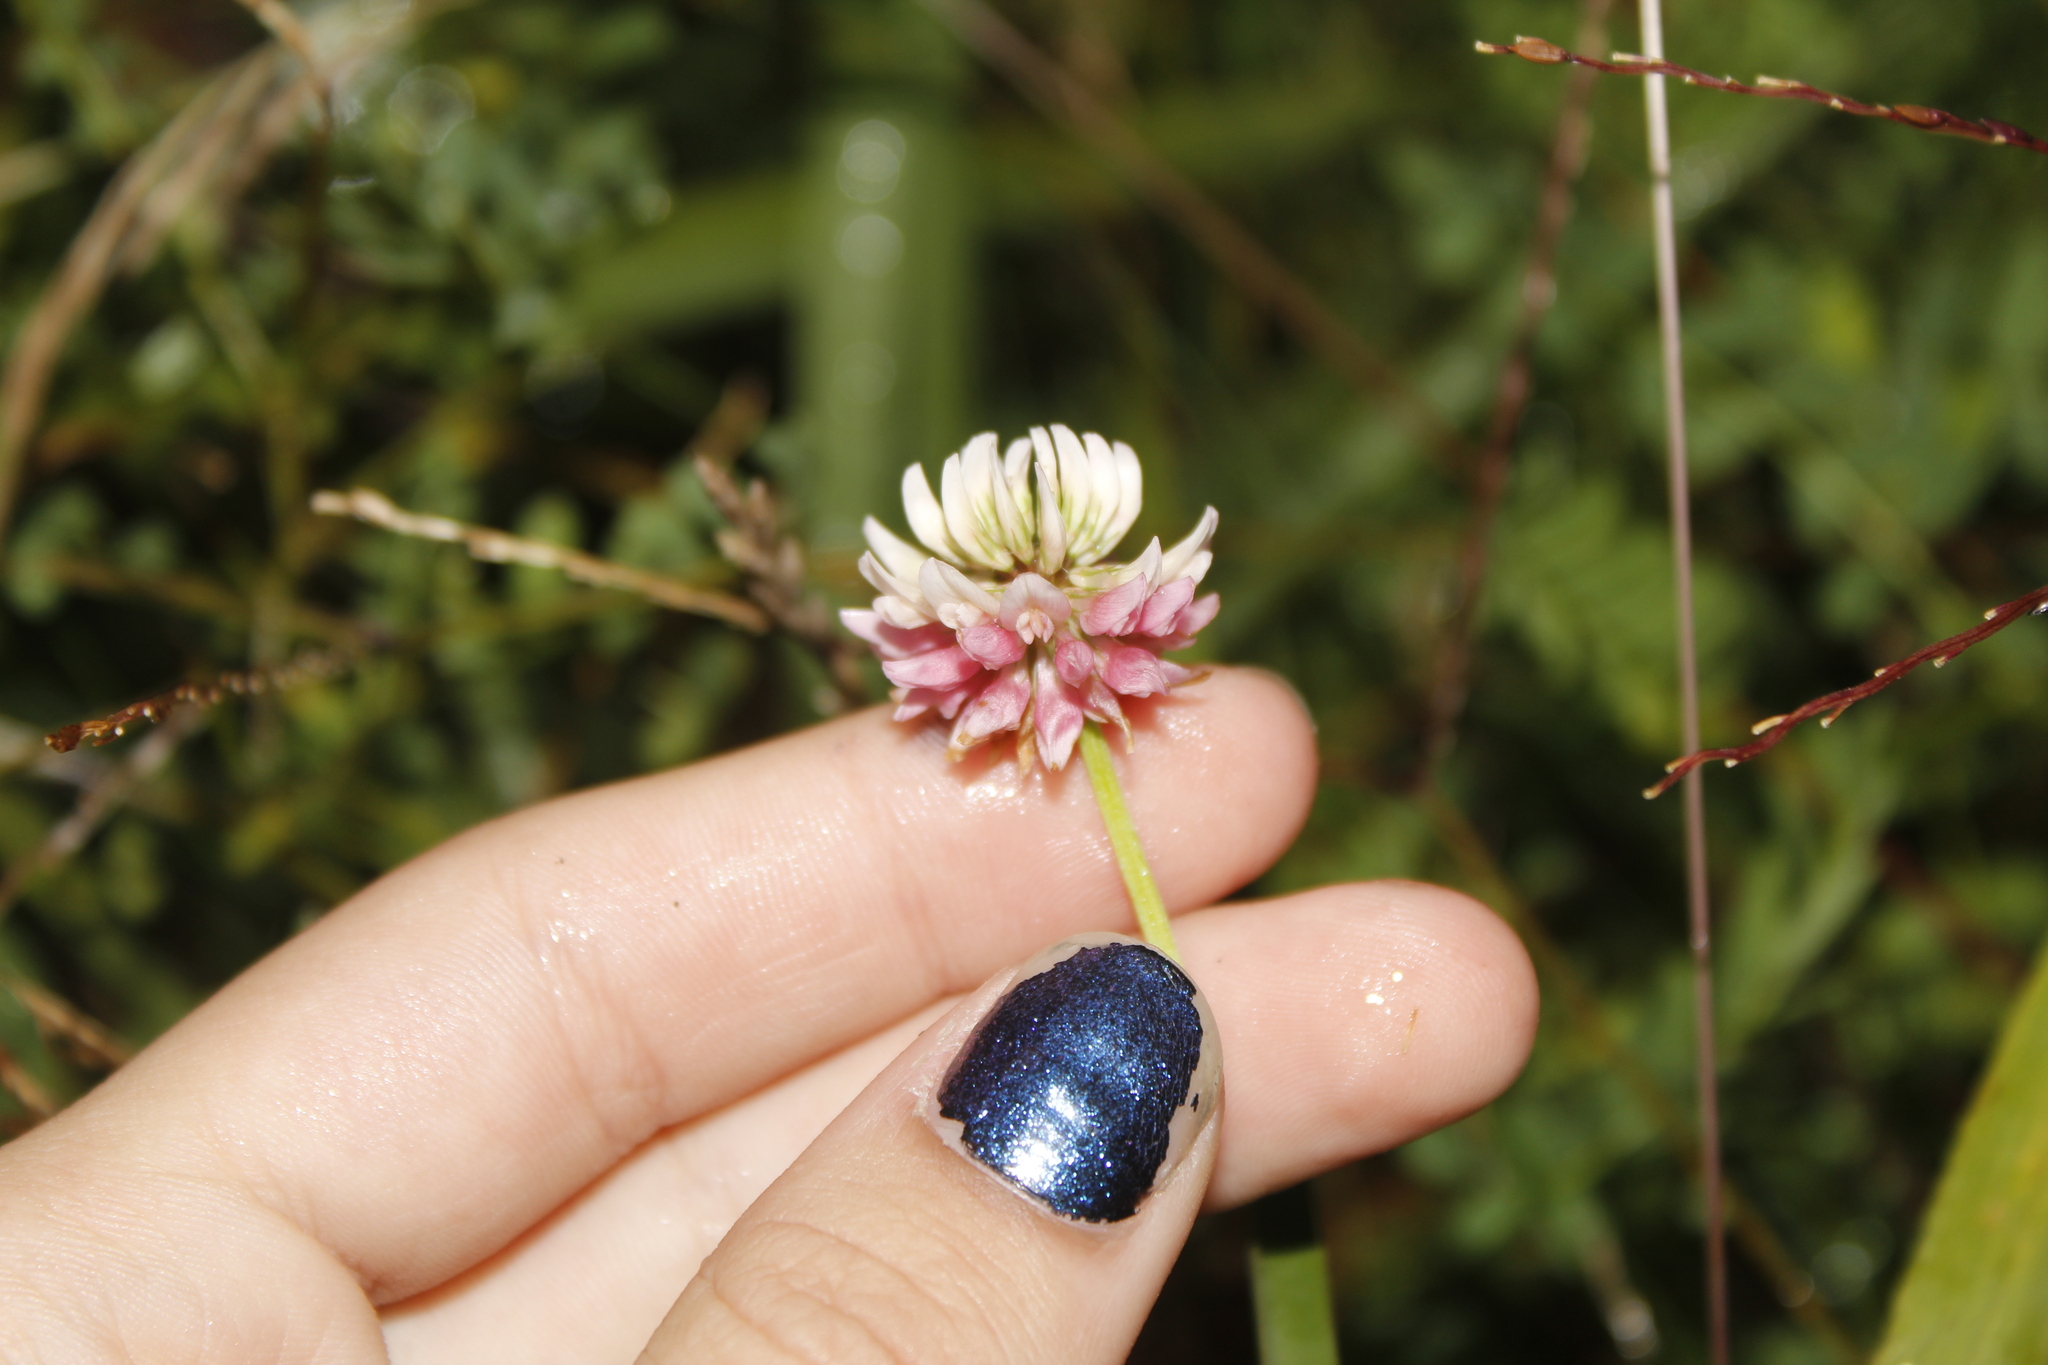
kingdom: Plantae
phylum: Tracheophyta
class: Magnoliopsida
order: Fabales
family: Fabaceae
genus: Trifolium
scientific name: Trifolium hybridum
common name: Alsike clover
